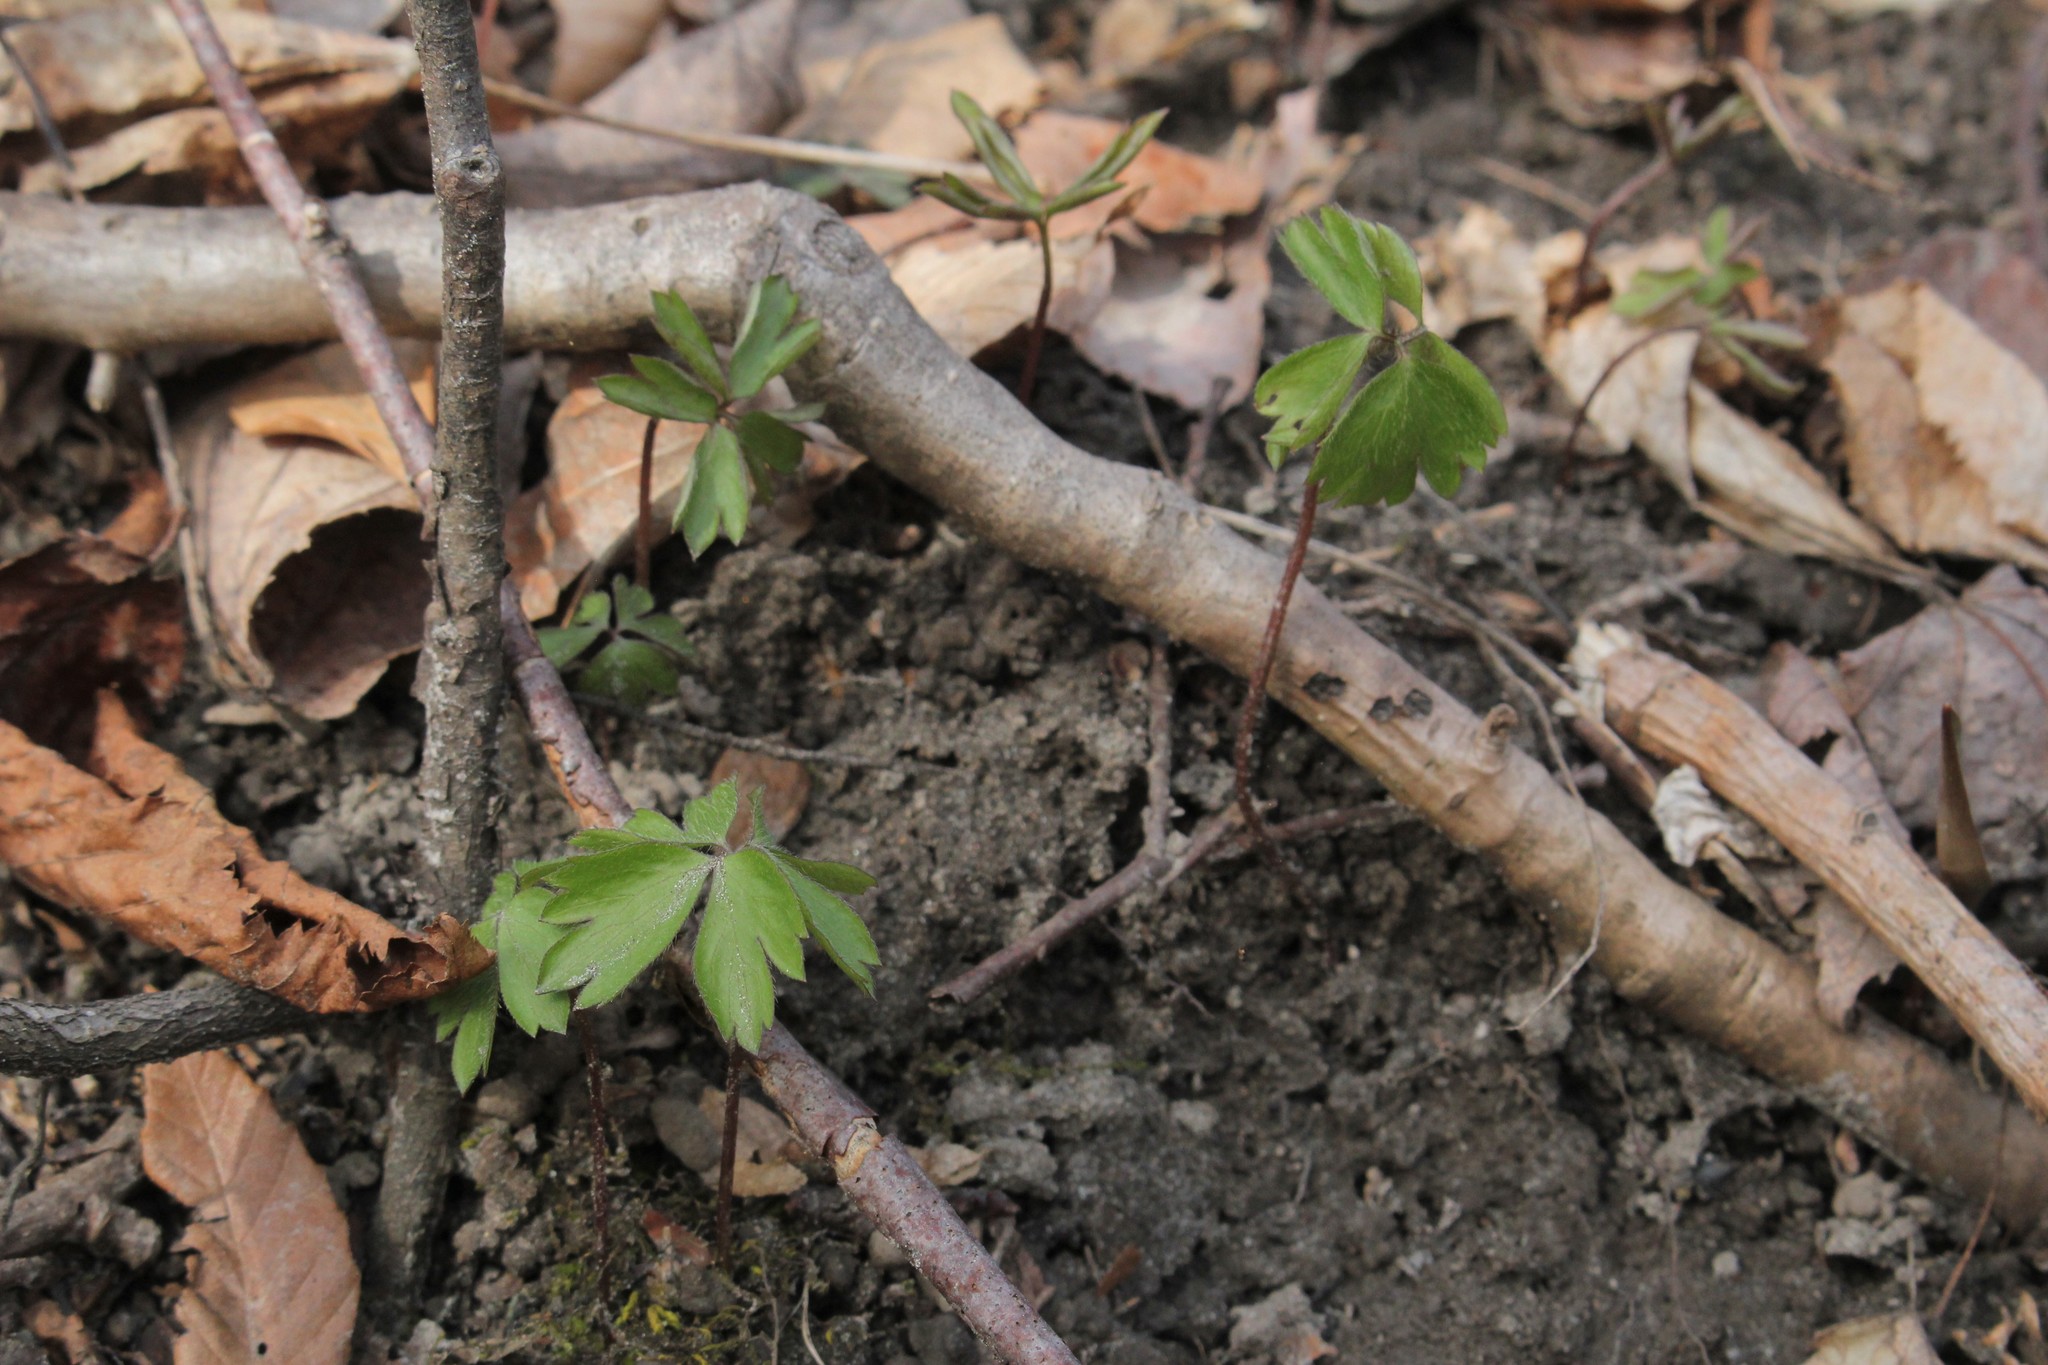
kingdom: Plantae
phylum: Tracheophyta
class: Magnoliopsida
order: Ranunculales
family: Ranunculaceae
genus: Anemone
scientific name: Anemone quinquefolia
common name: Wood anemone
